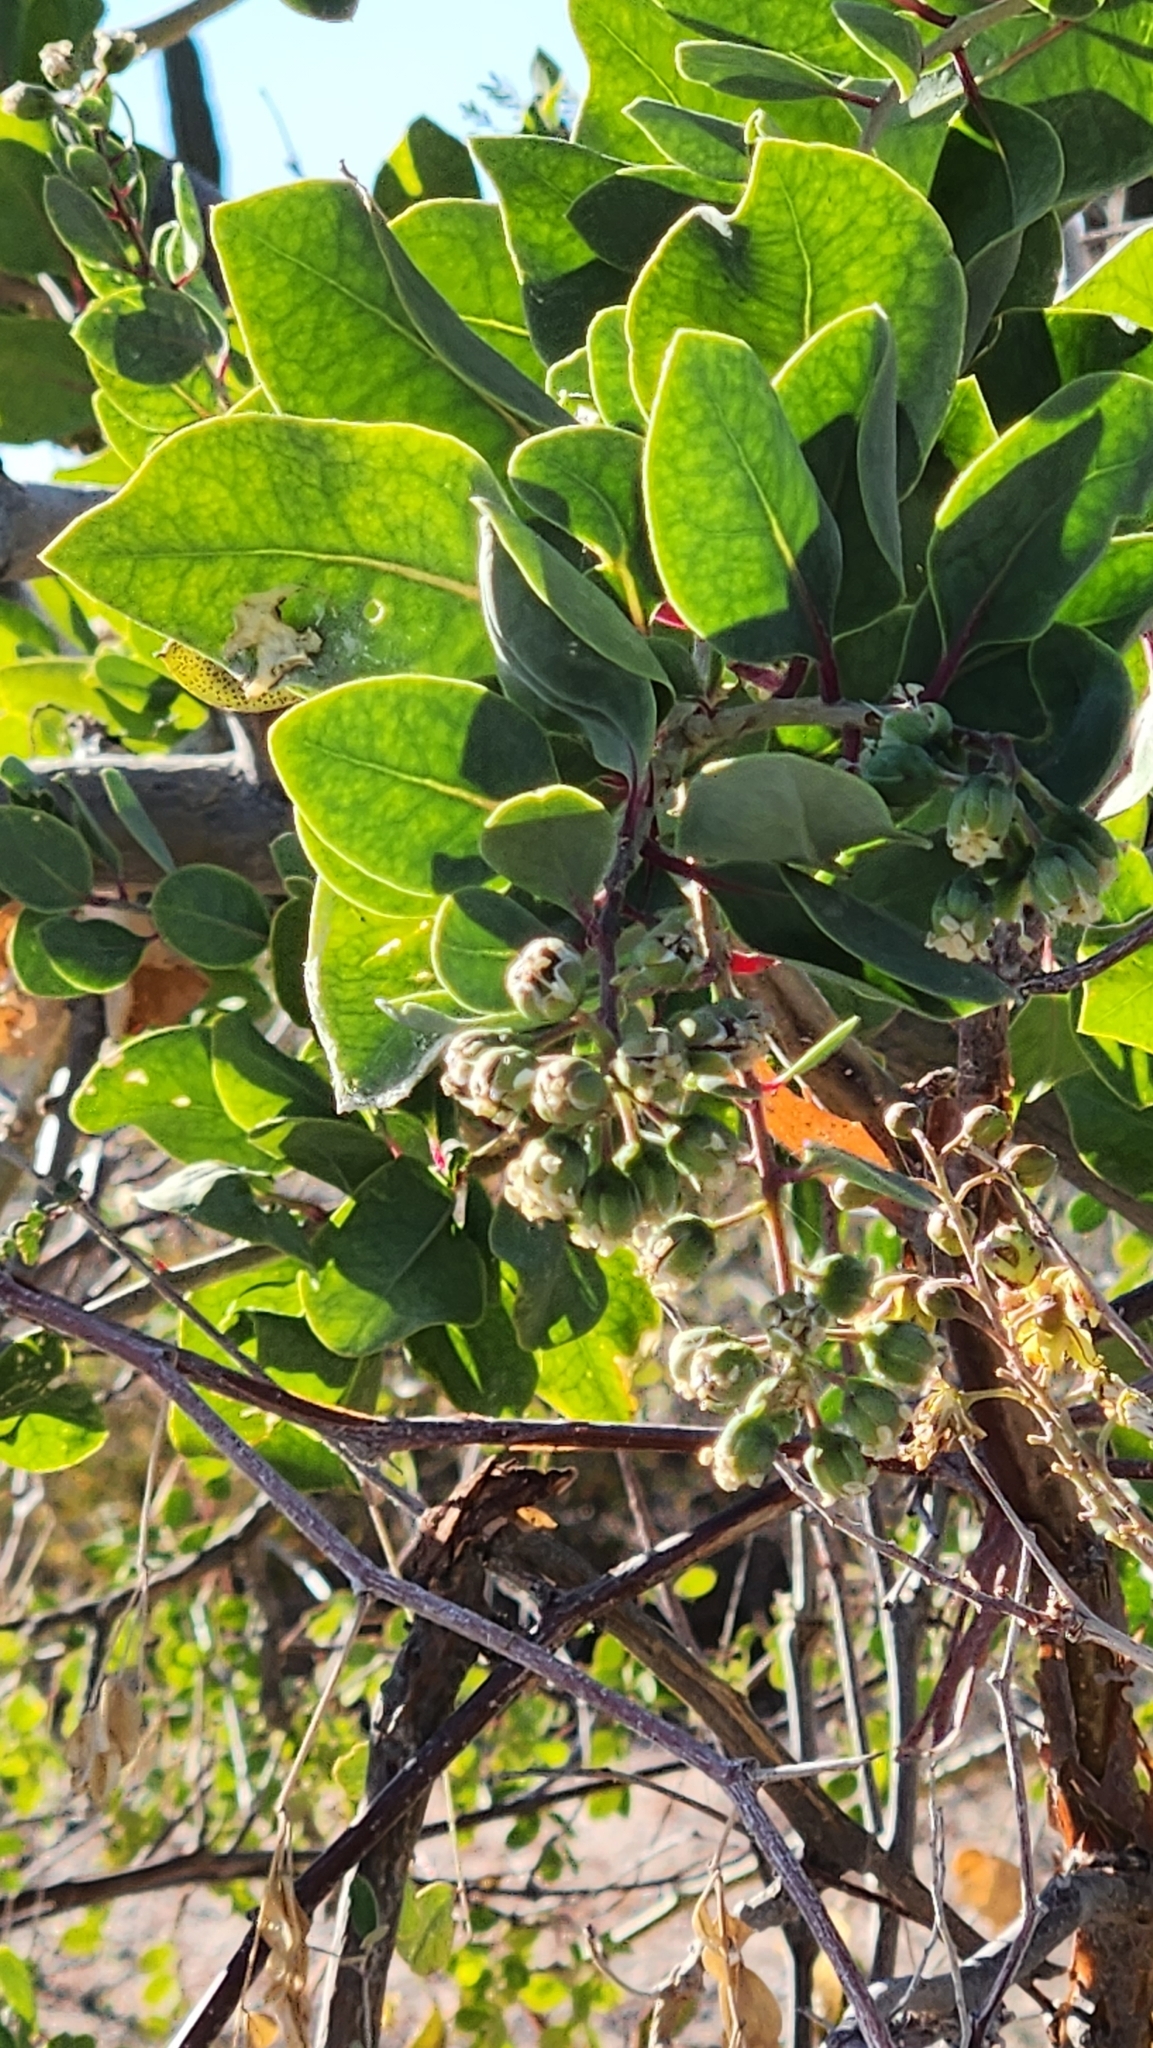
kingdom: Plantae
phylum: Tracheophyta
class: Magnoliopsida
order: Caryophyllales
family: Stegnospermataceae
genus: Stegnosperma
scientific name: Stegnosperma halimifolium
